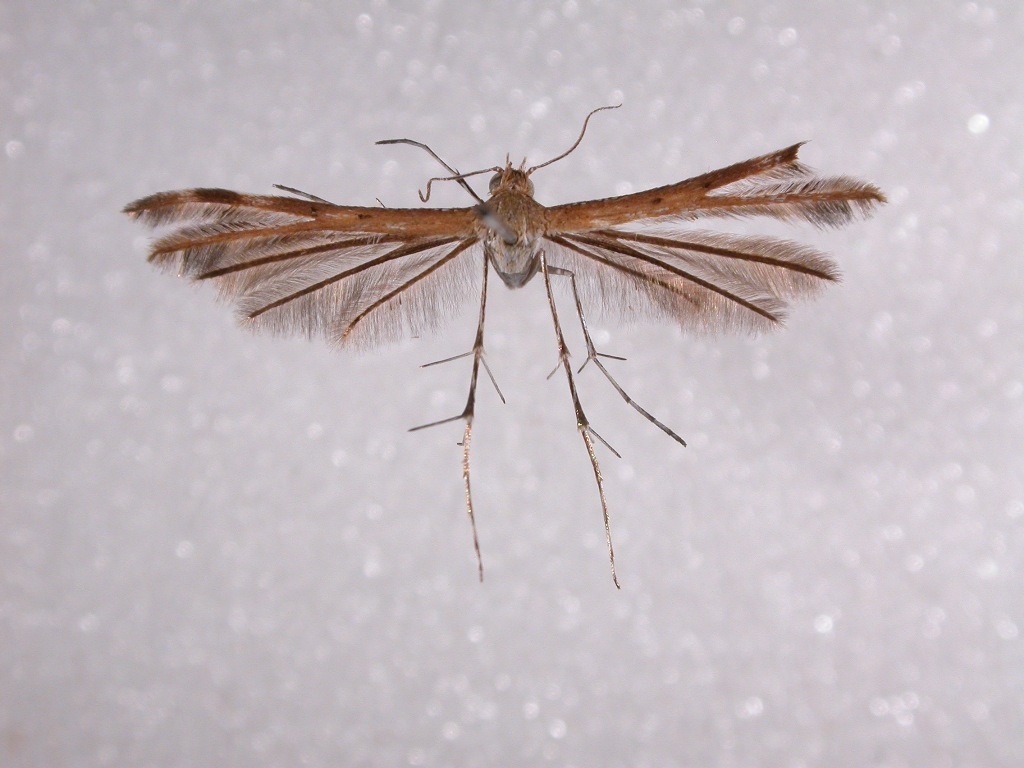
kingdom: Animalia
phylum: Arthropoda
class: Insecta
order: Lepidoptera
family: Pterophoridae
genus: Megalorhipida
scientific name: Megalorhipida leucodactylus
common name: Plume moth
